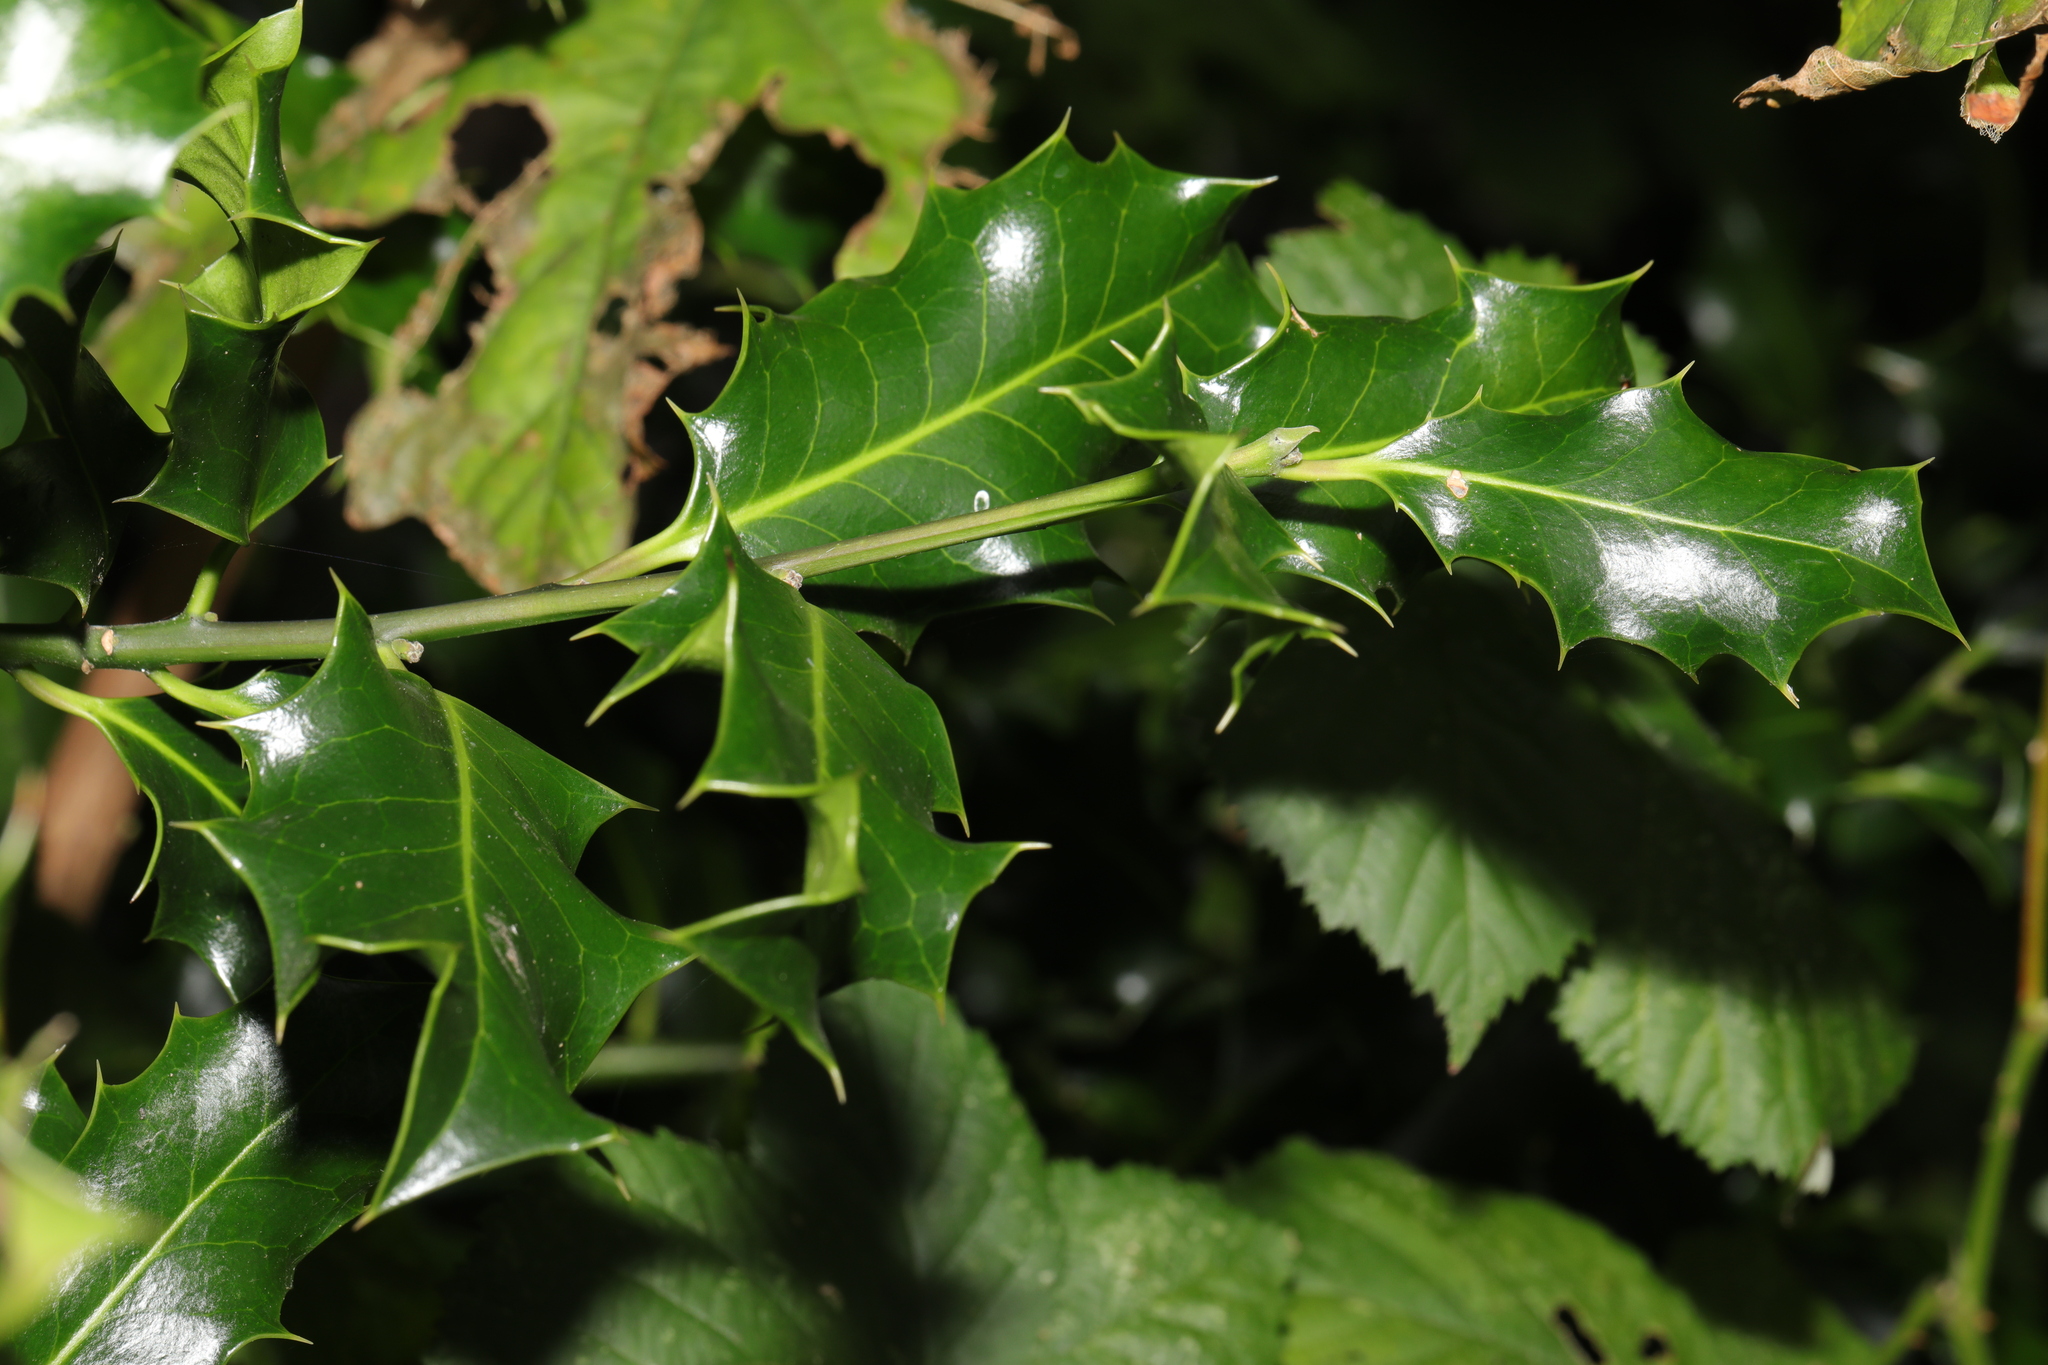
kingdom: Plantae
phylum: Tracheophyta
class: Magnoliopsida
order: Aquifoliales
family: Aquifoliaceae
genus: Ilex
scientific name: Ilex aquifolium
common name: English holly
